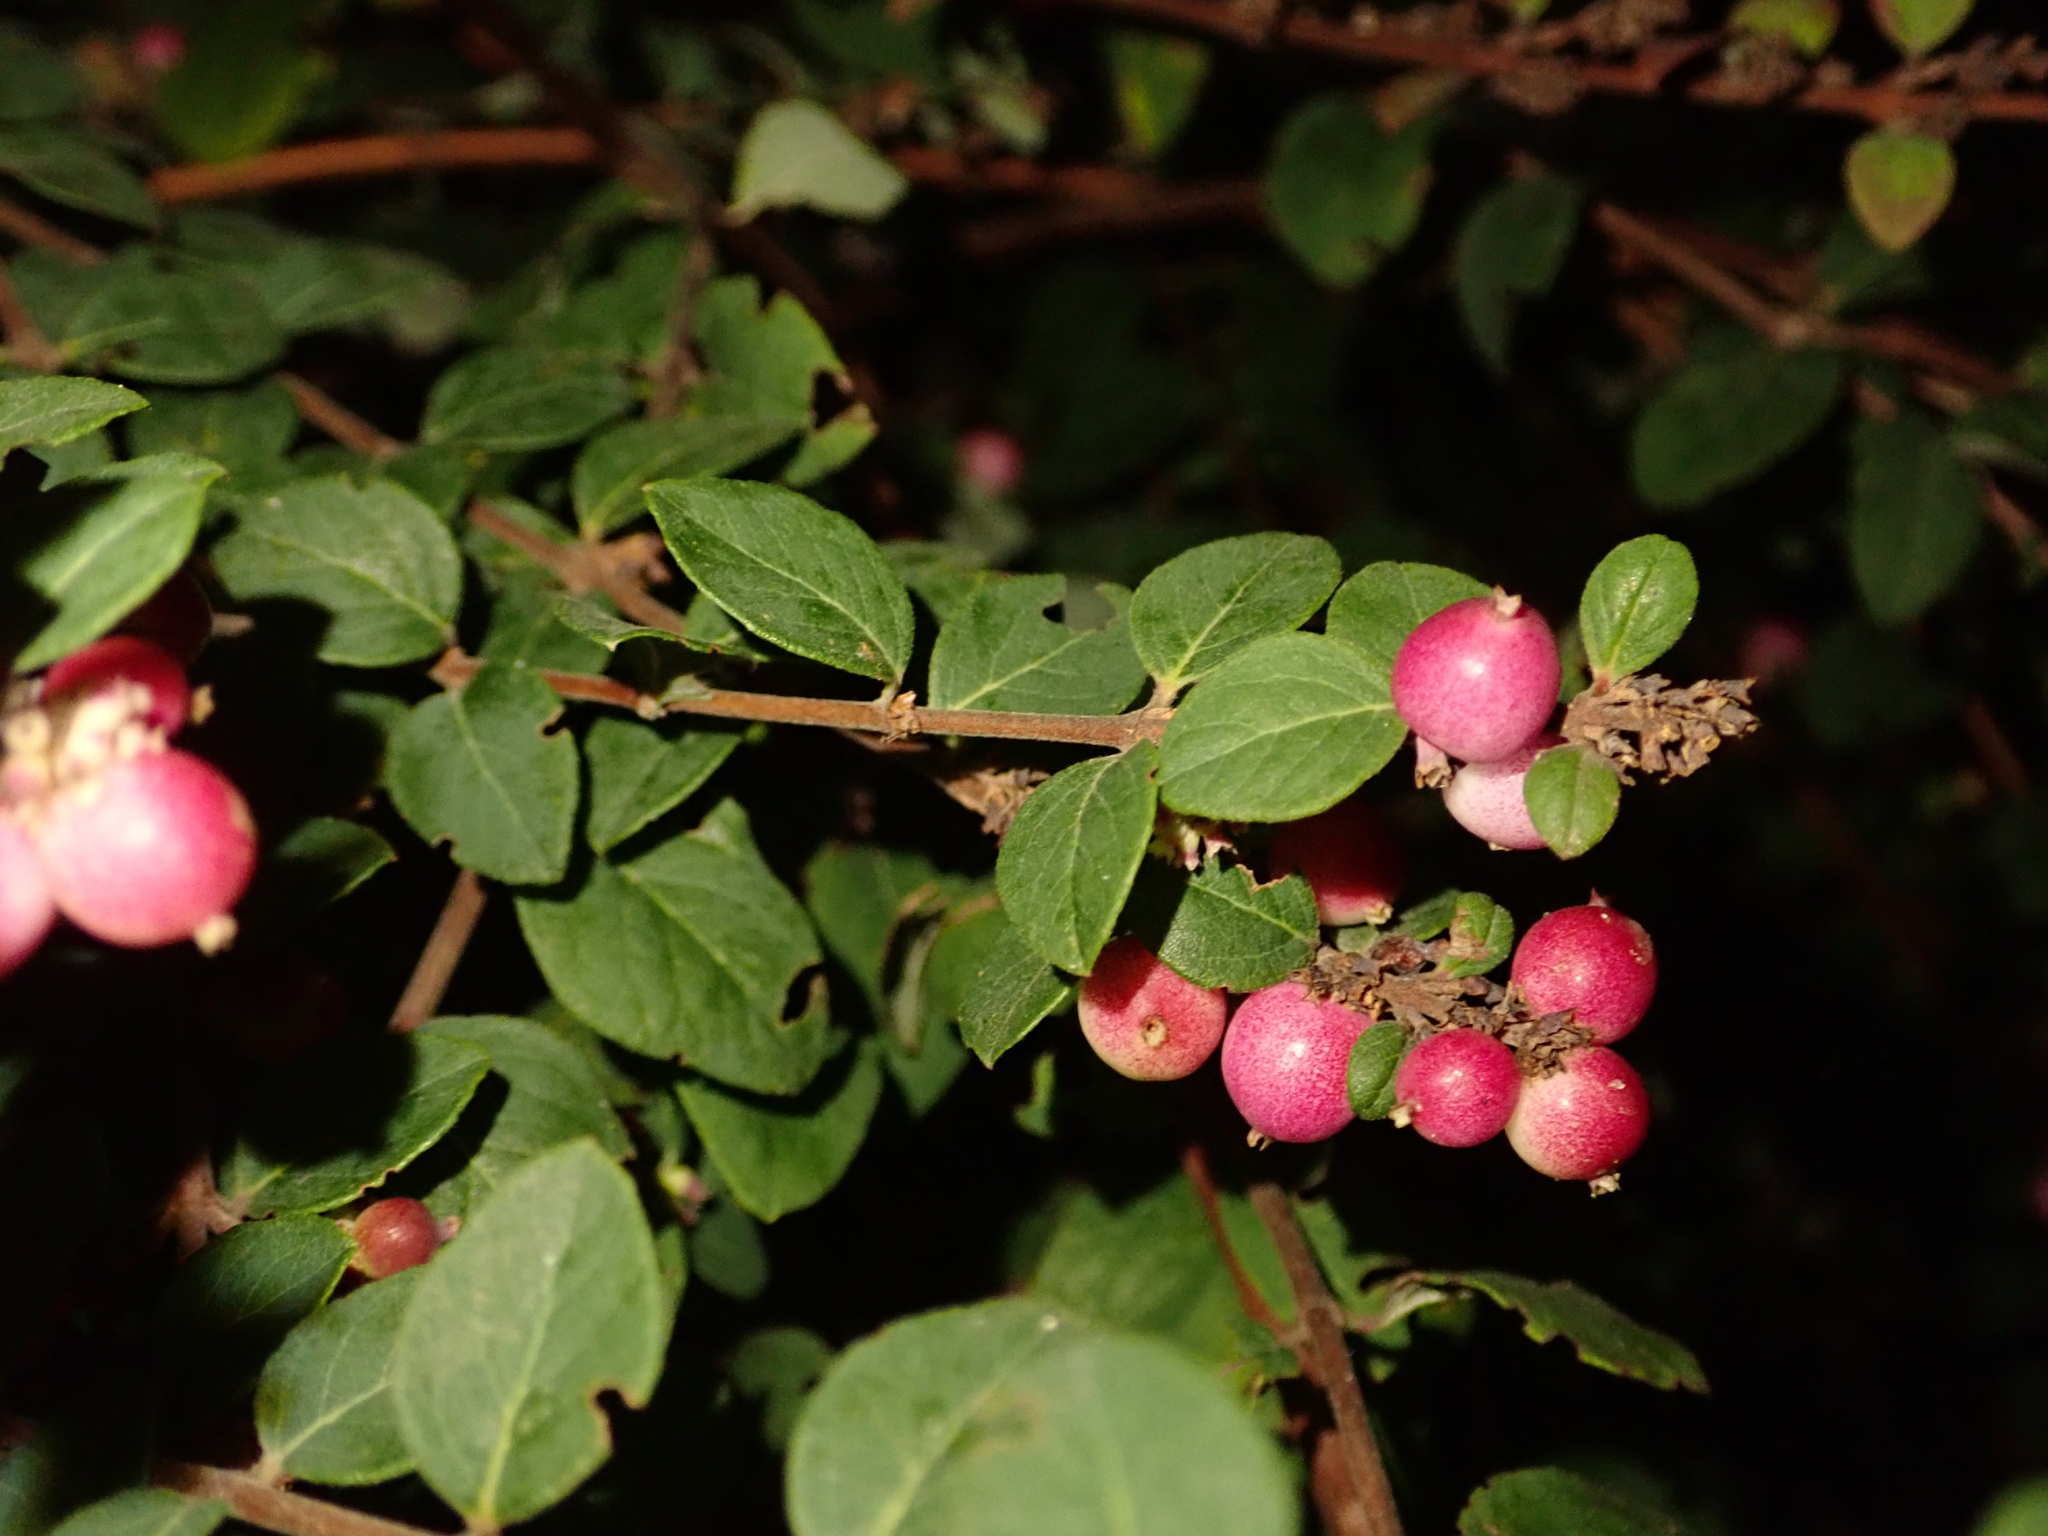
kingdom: Plantae
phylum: Tracheophyta
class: Magnoliopsida
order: Dipsacales
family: Caprifoliaceae
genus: Symphoricarpos
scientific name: Symphoricarpos doorenbosii
